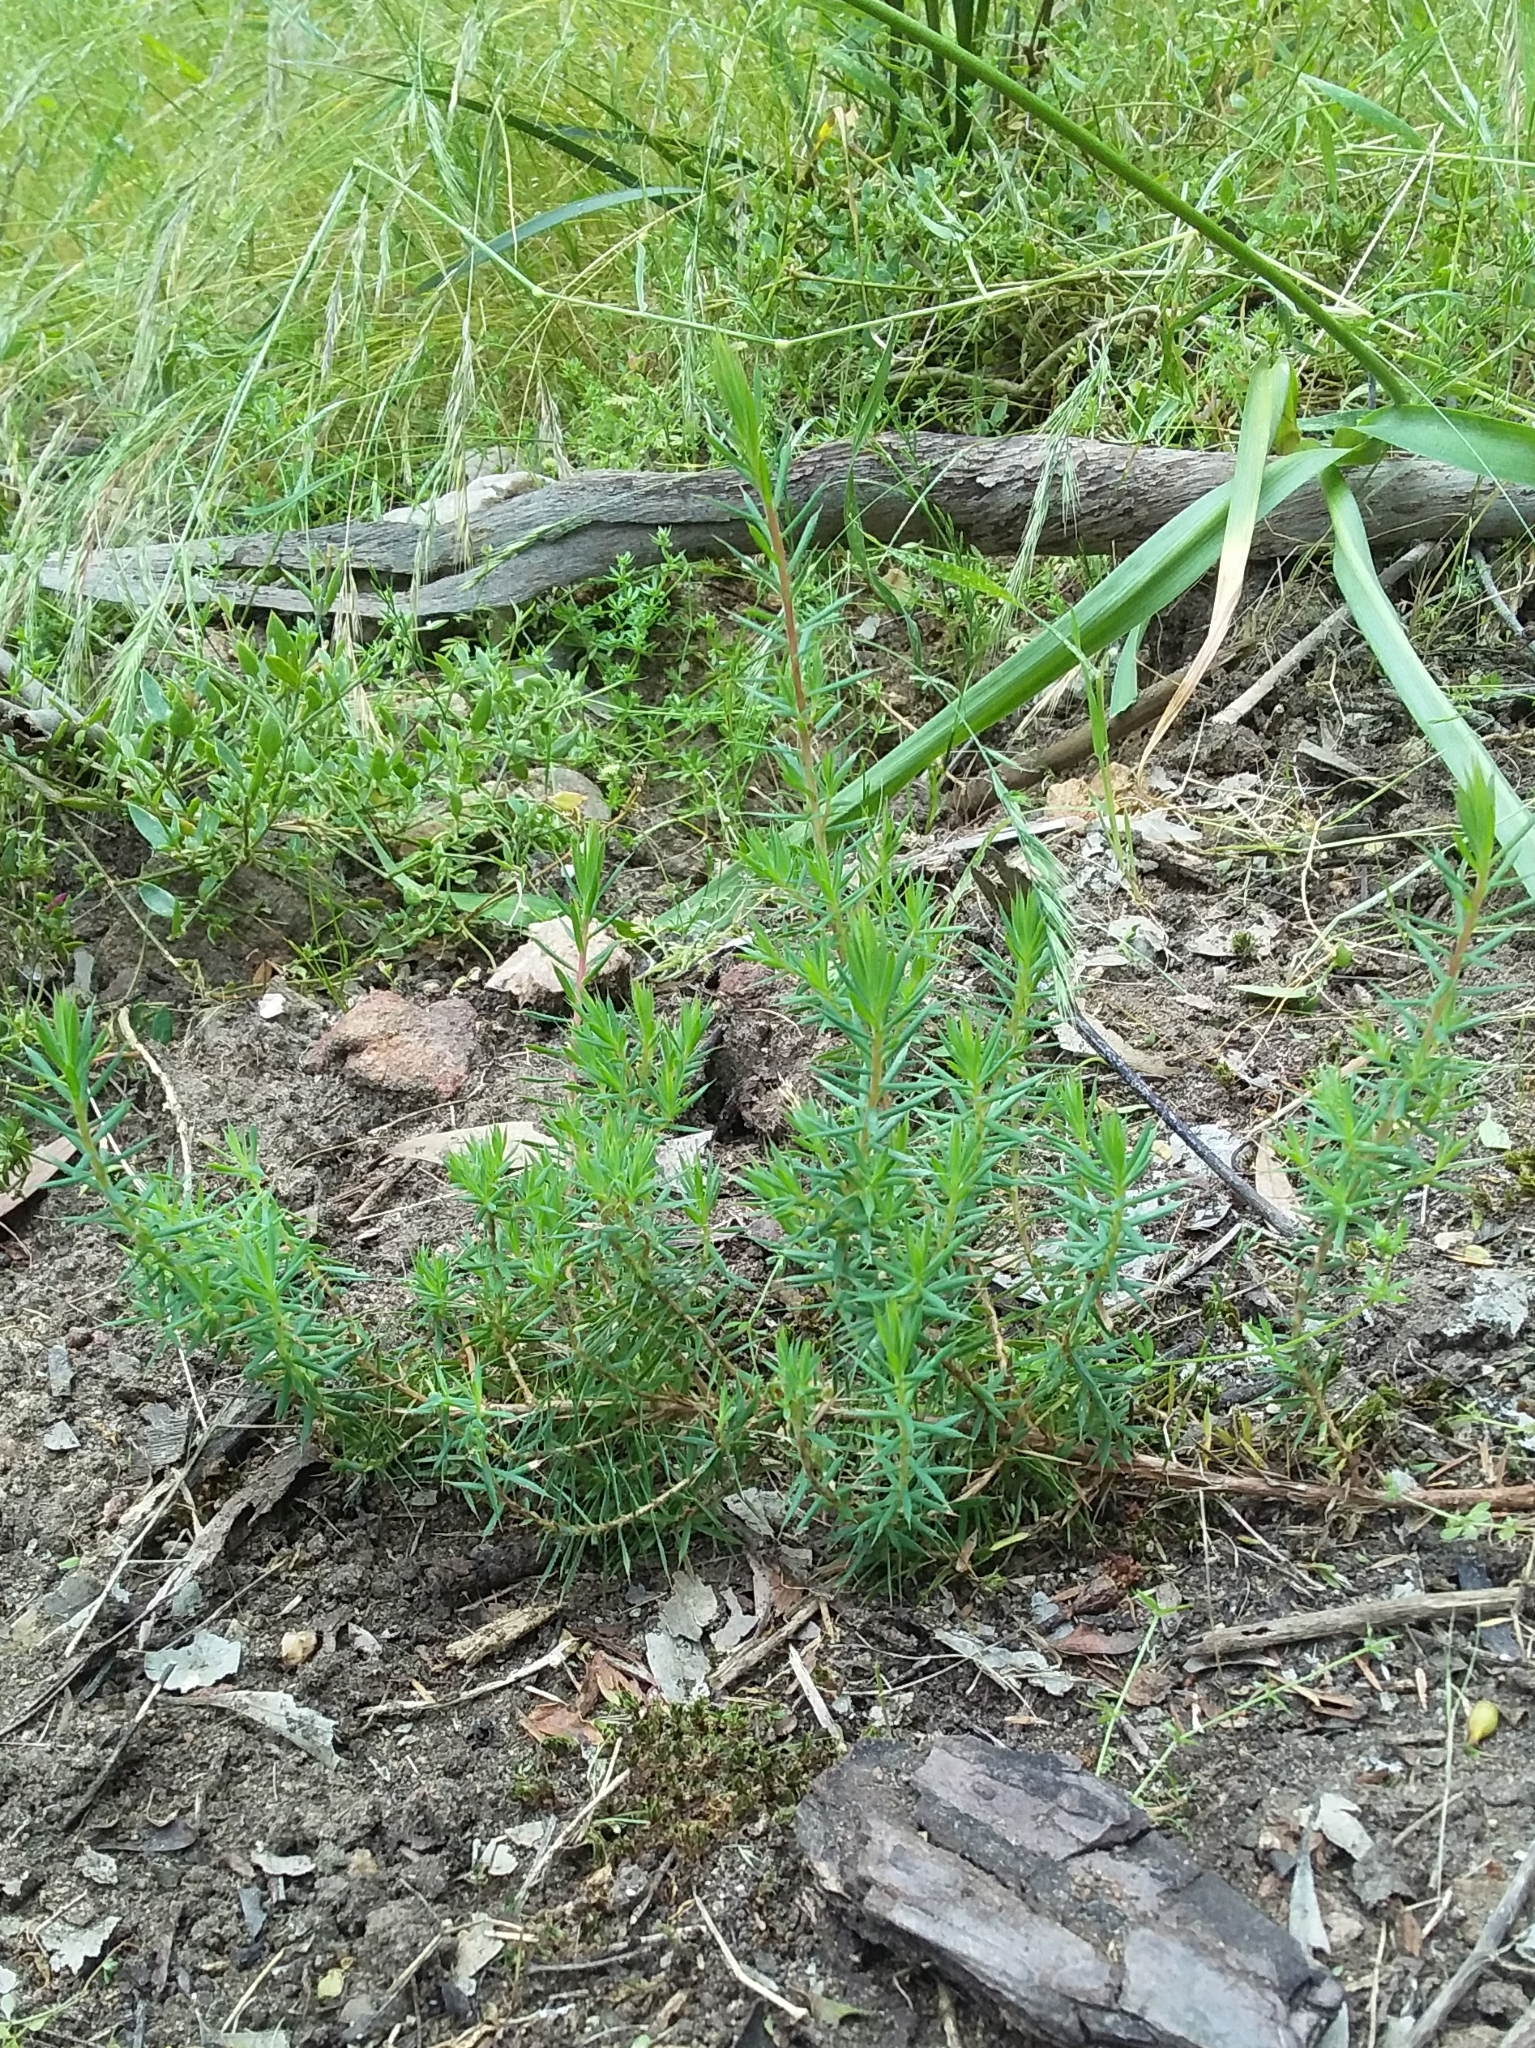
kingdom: Plantae
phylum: Tracheophyta
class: Magnoliopsida
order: Ericales
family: Ericaceae
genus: Stenanthera
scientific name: Stenanthera conostephioides
